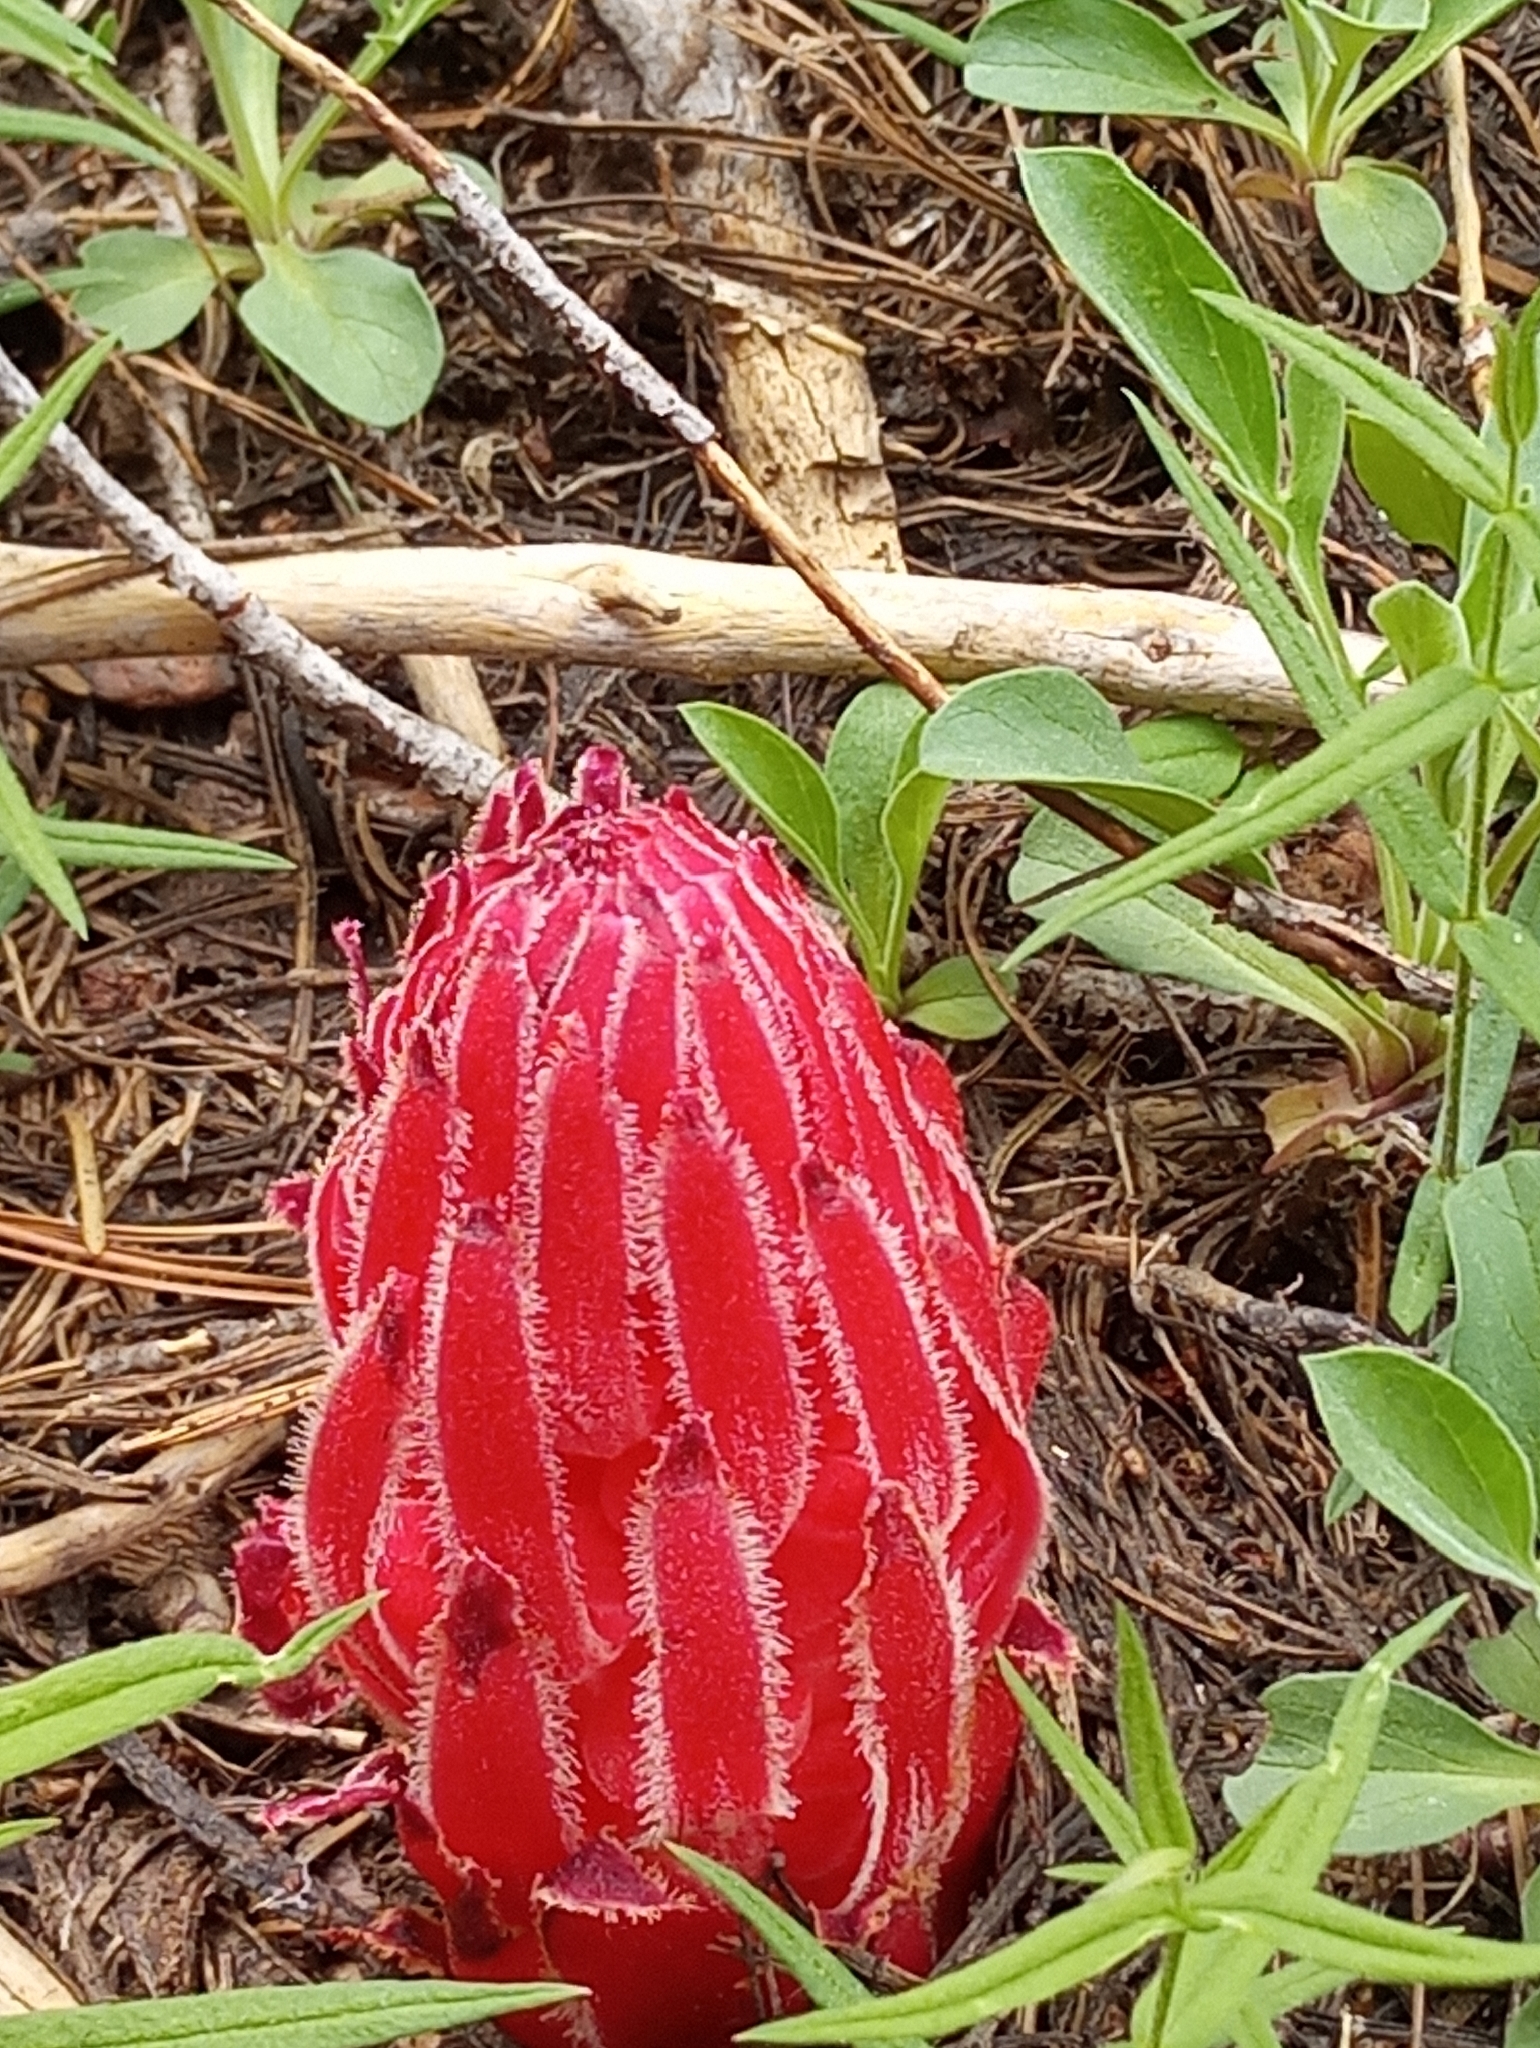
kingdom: Plantae
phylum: Tracheophyta
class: Magnoliopsida
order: Ericales
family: Ericaceae
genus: Sarcodes
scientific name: Sarcodes sanguinea
